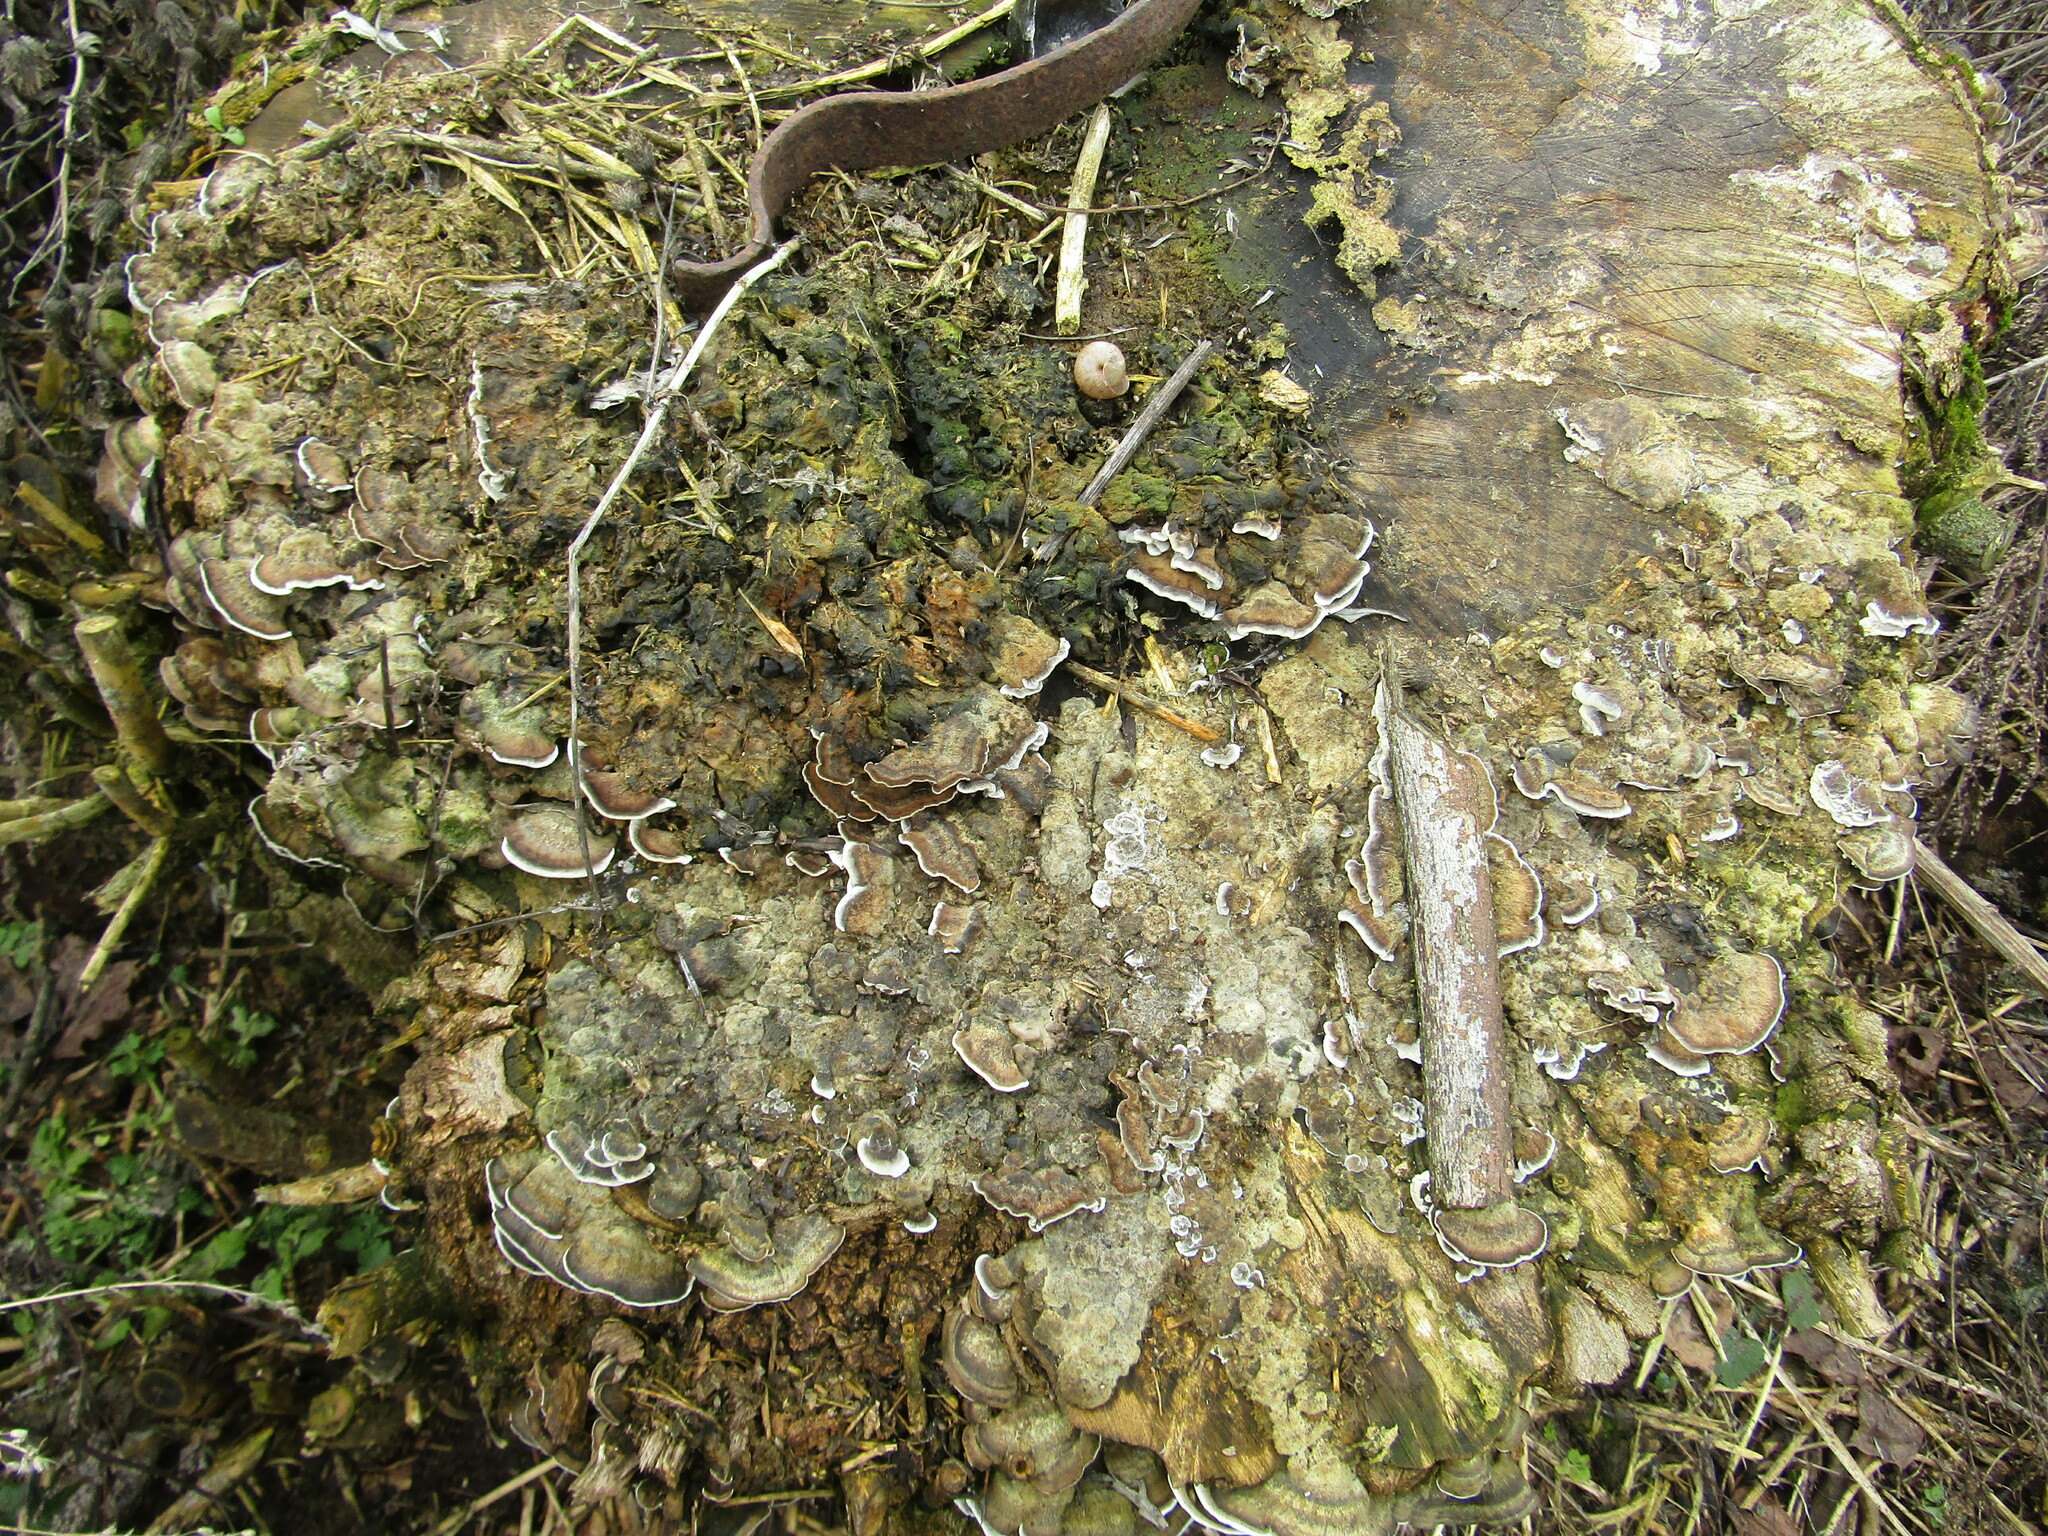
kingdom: Fungi
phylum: Basidiomycota
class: Agaricomycetes
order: Polyporales
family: Phanerochaetaceae
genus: Bjerkandera
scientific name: Bjerkandera adusta
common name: Smoky bracket
